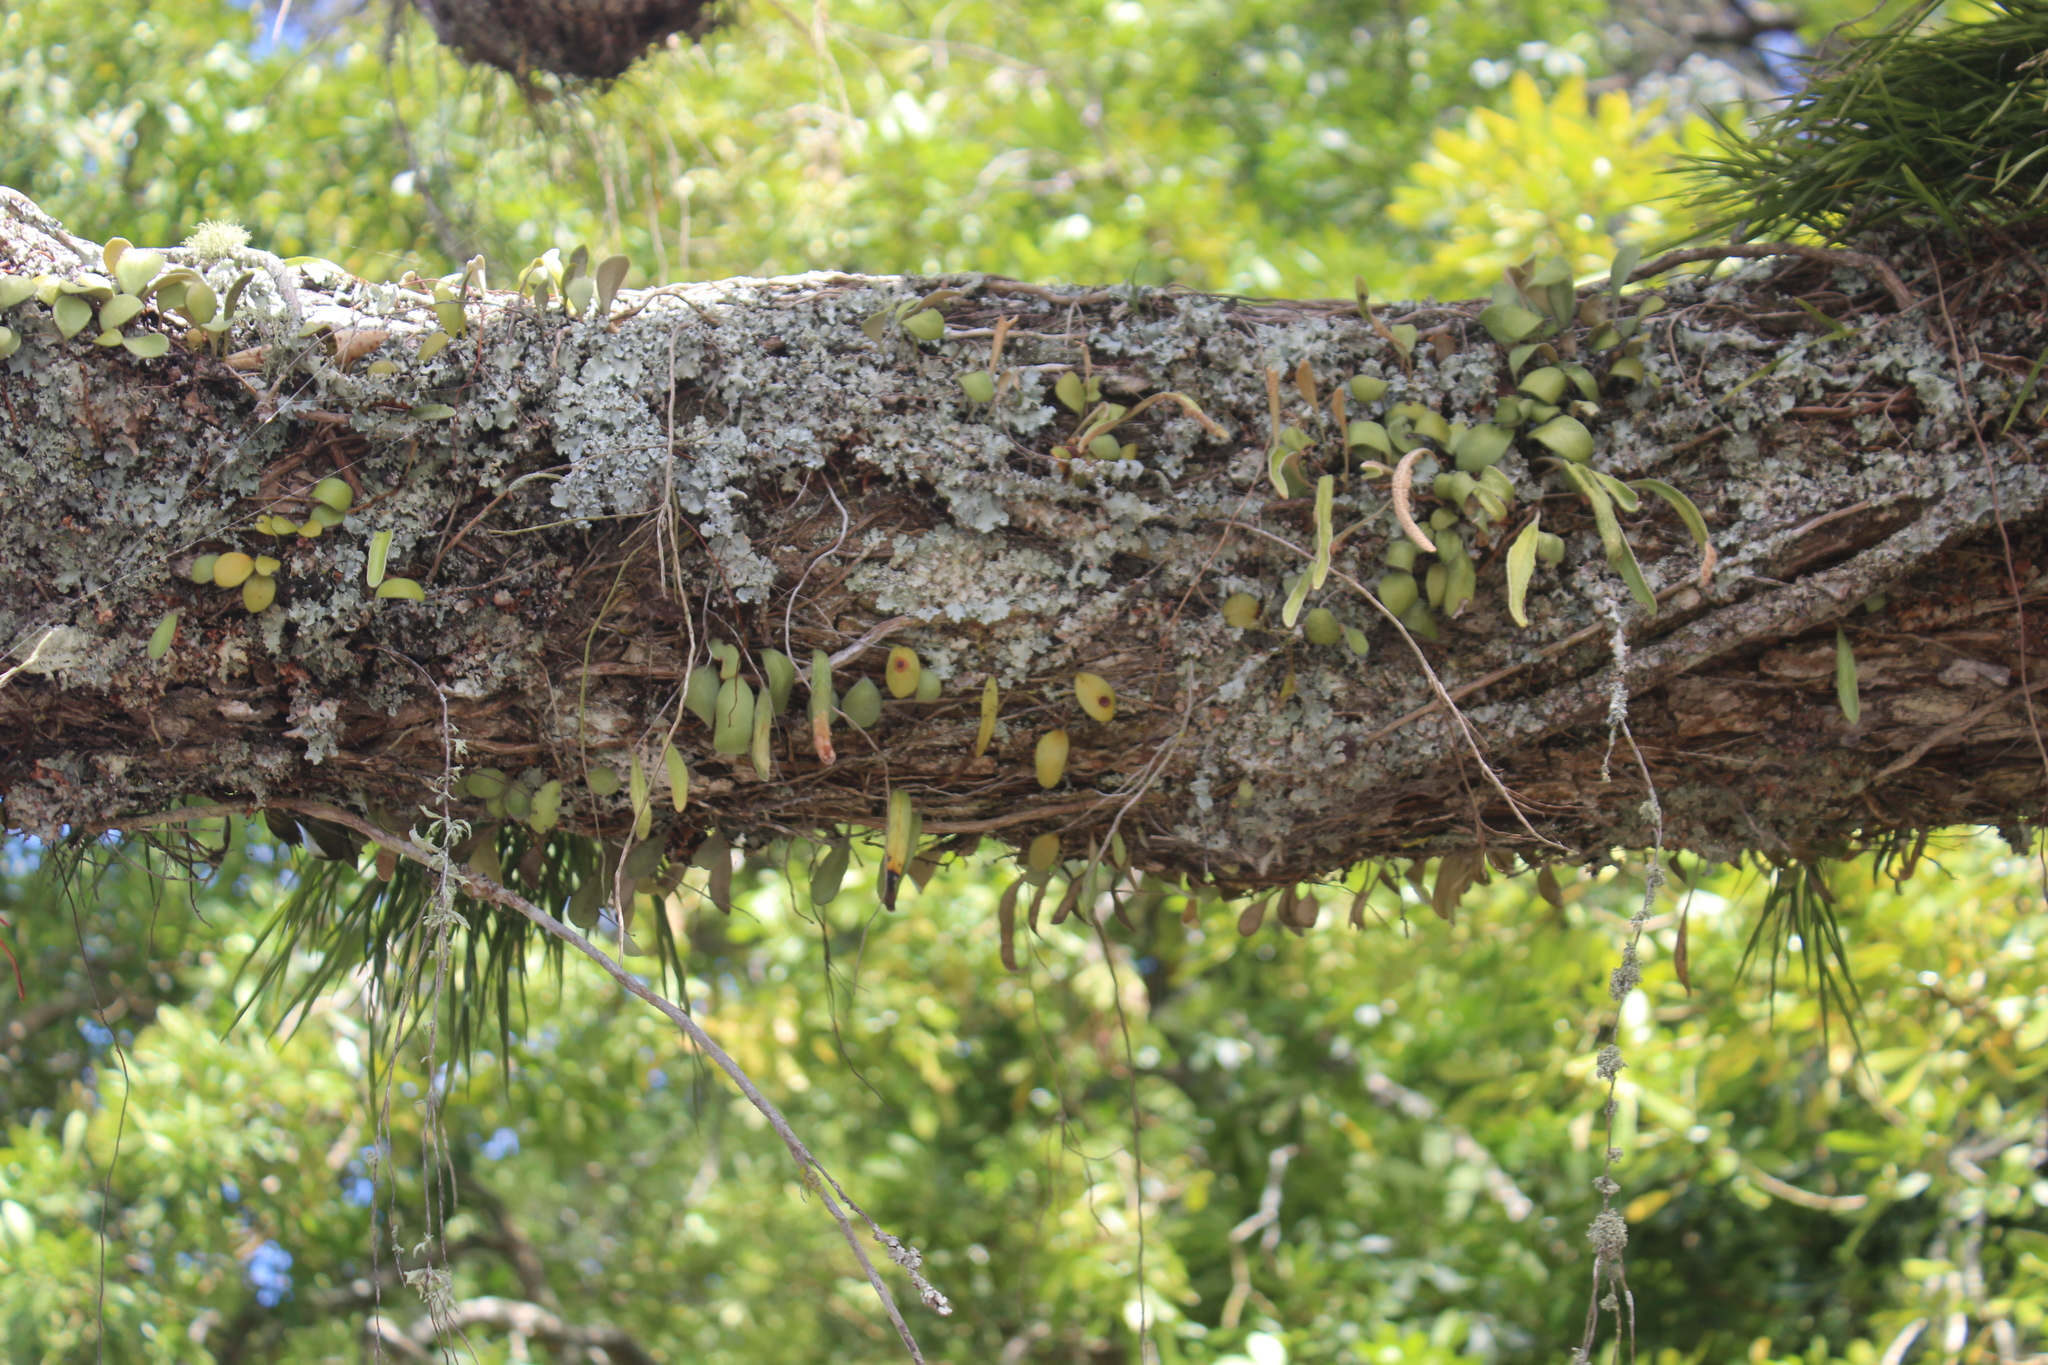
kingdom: Plantae
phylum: Tracheophyta
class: Polypodiopsida
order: Polypodiales
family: Polypodiaceae
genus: Pyrrosia
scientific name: Pyrrosia eleagnifolia
